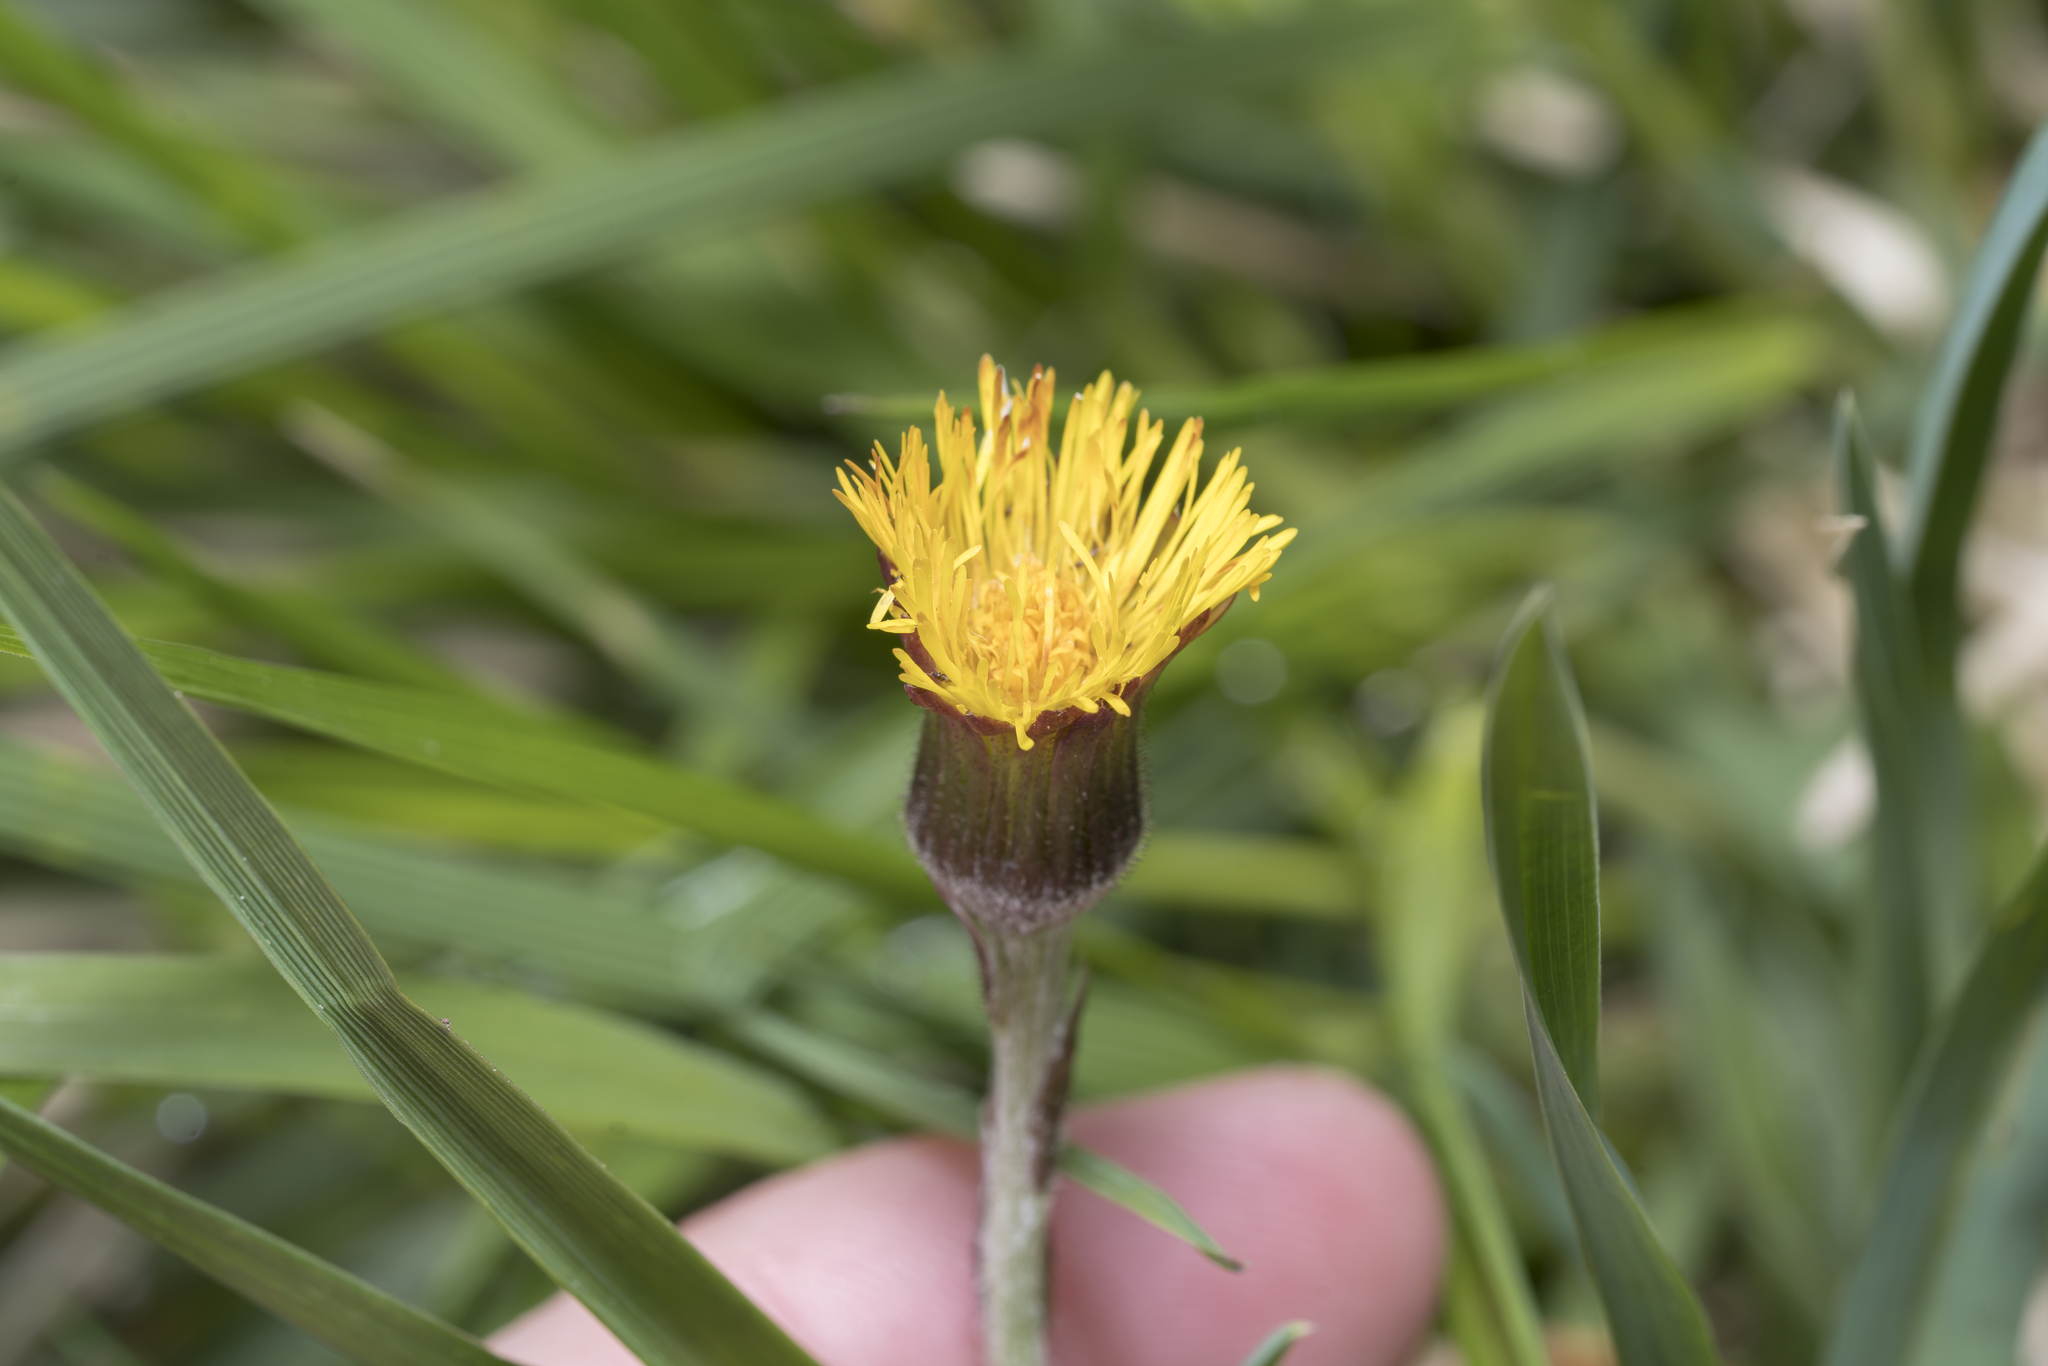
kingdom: Plantae
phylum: Tracheophyta
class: Magnoliopsida
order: Asterales
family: Asteraceae
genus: Tussilago
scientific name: Tussilago farfara
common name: Coltsfoot
